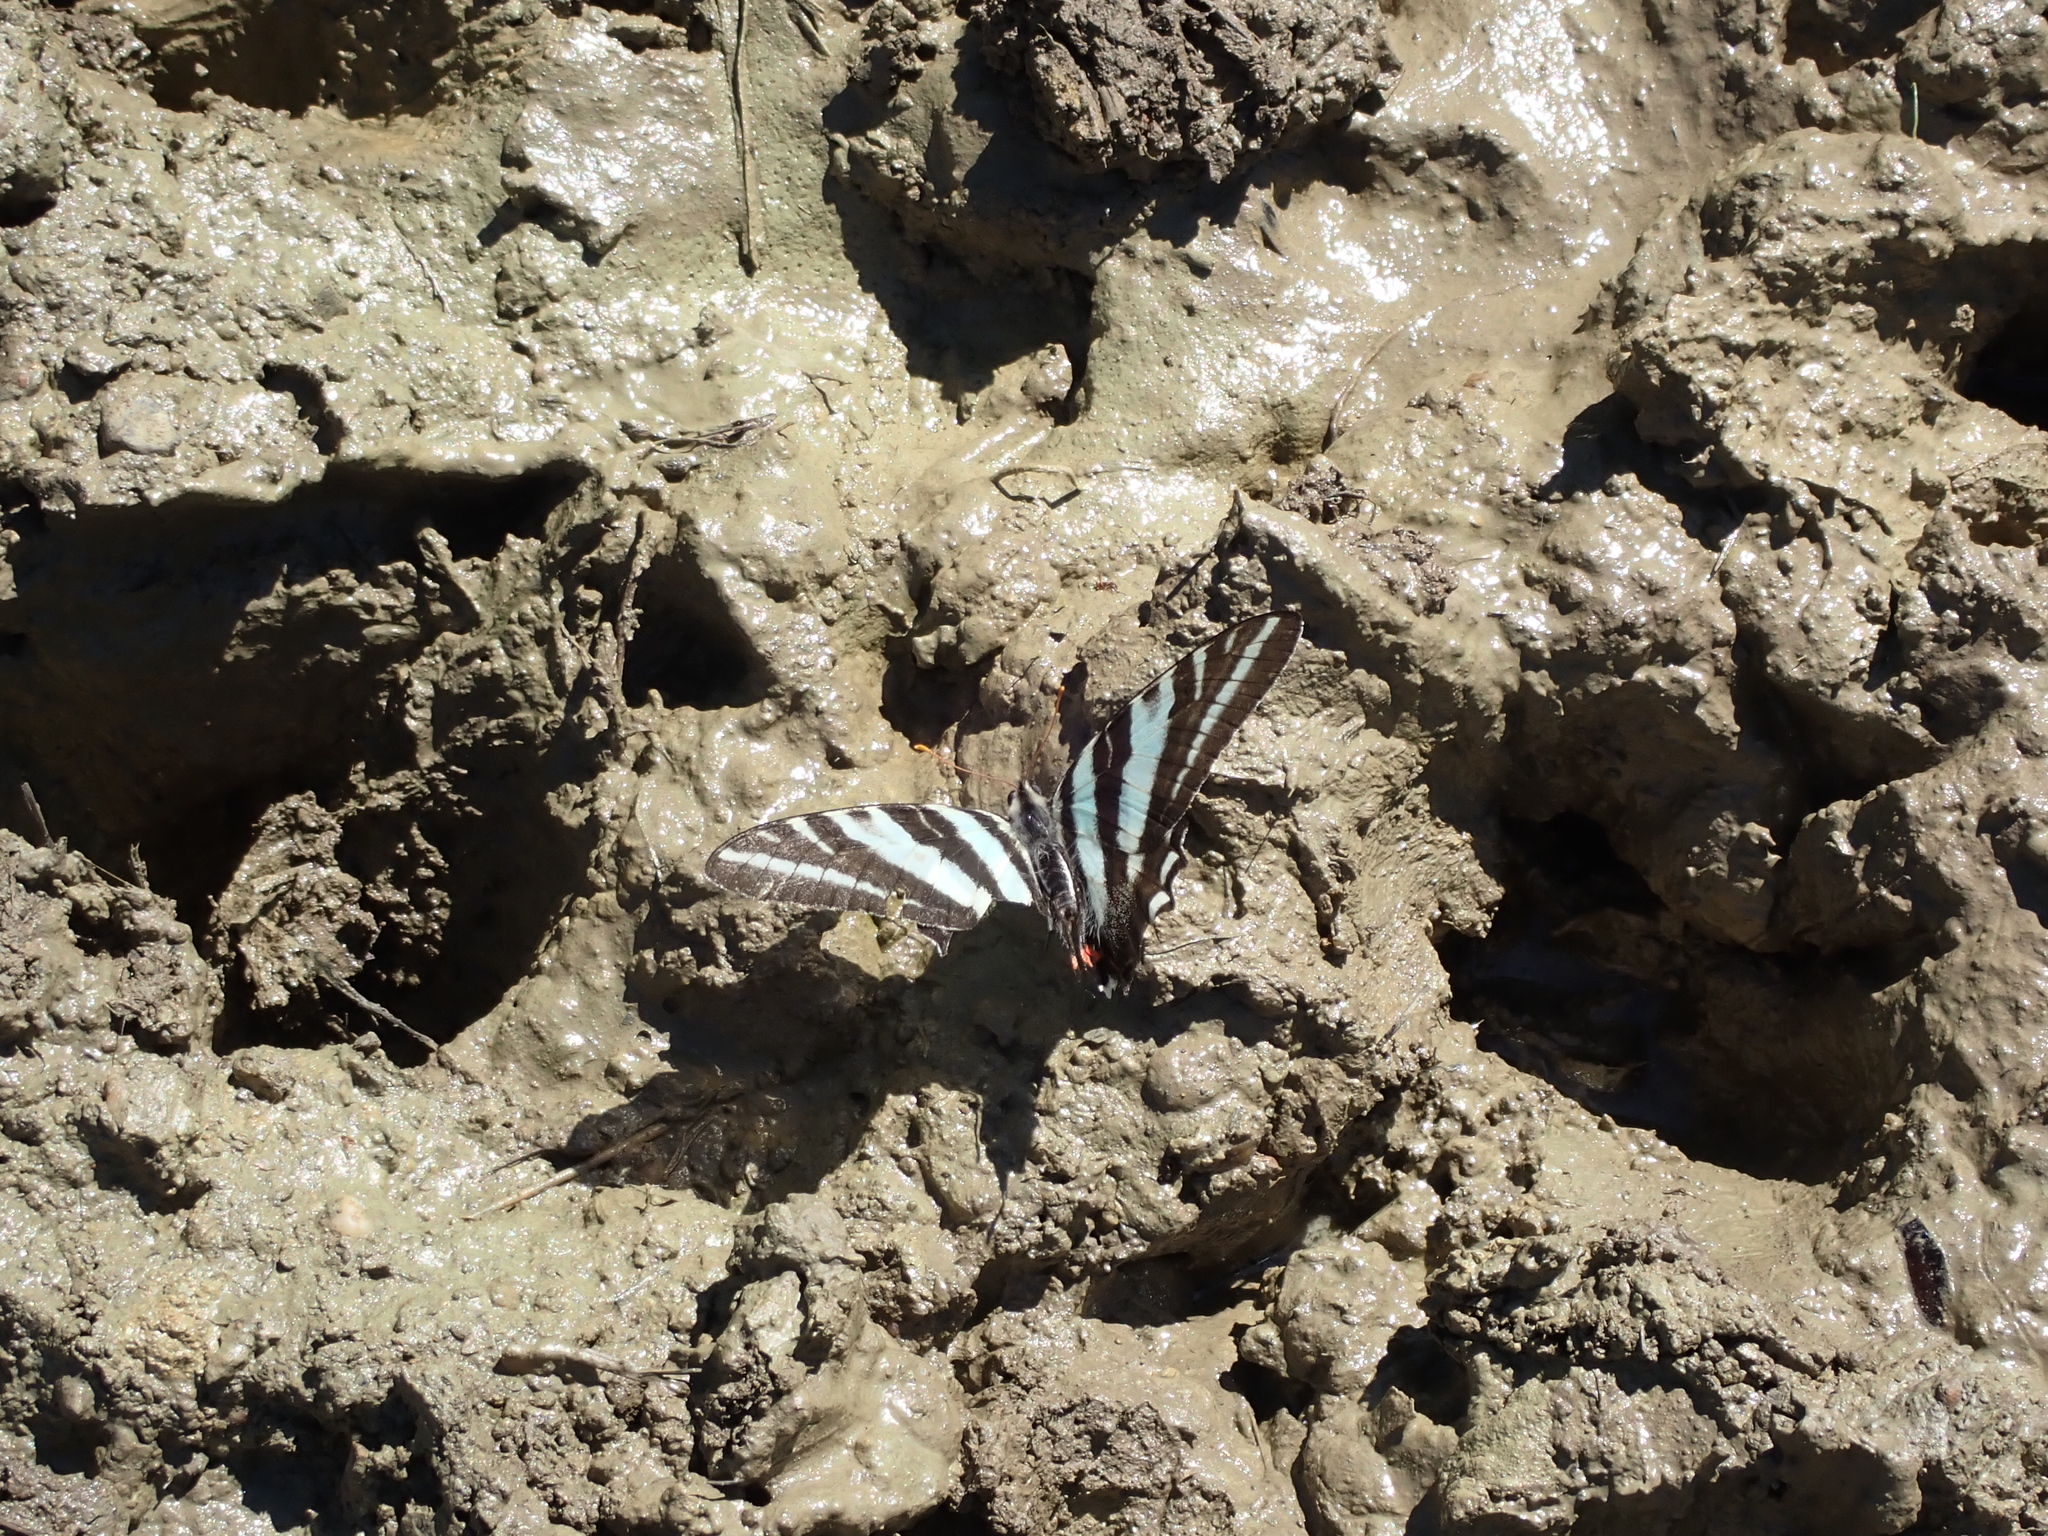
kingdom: Animalia
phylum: Arthropoda
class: Insecta
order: Lepidoptera
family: Papilionidae
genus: Protographium
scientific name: Protographium marcellus
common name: Zebra swallowtail
